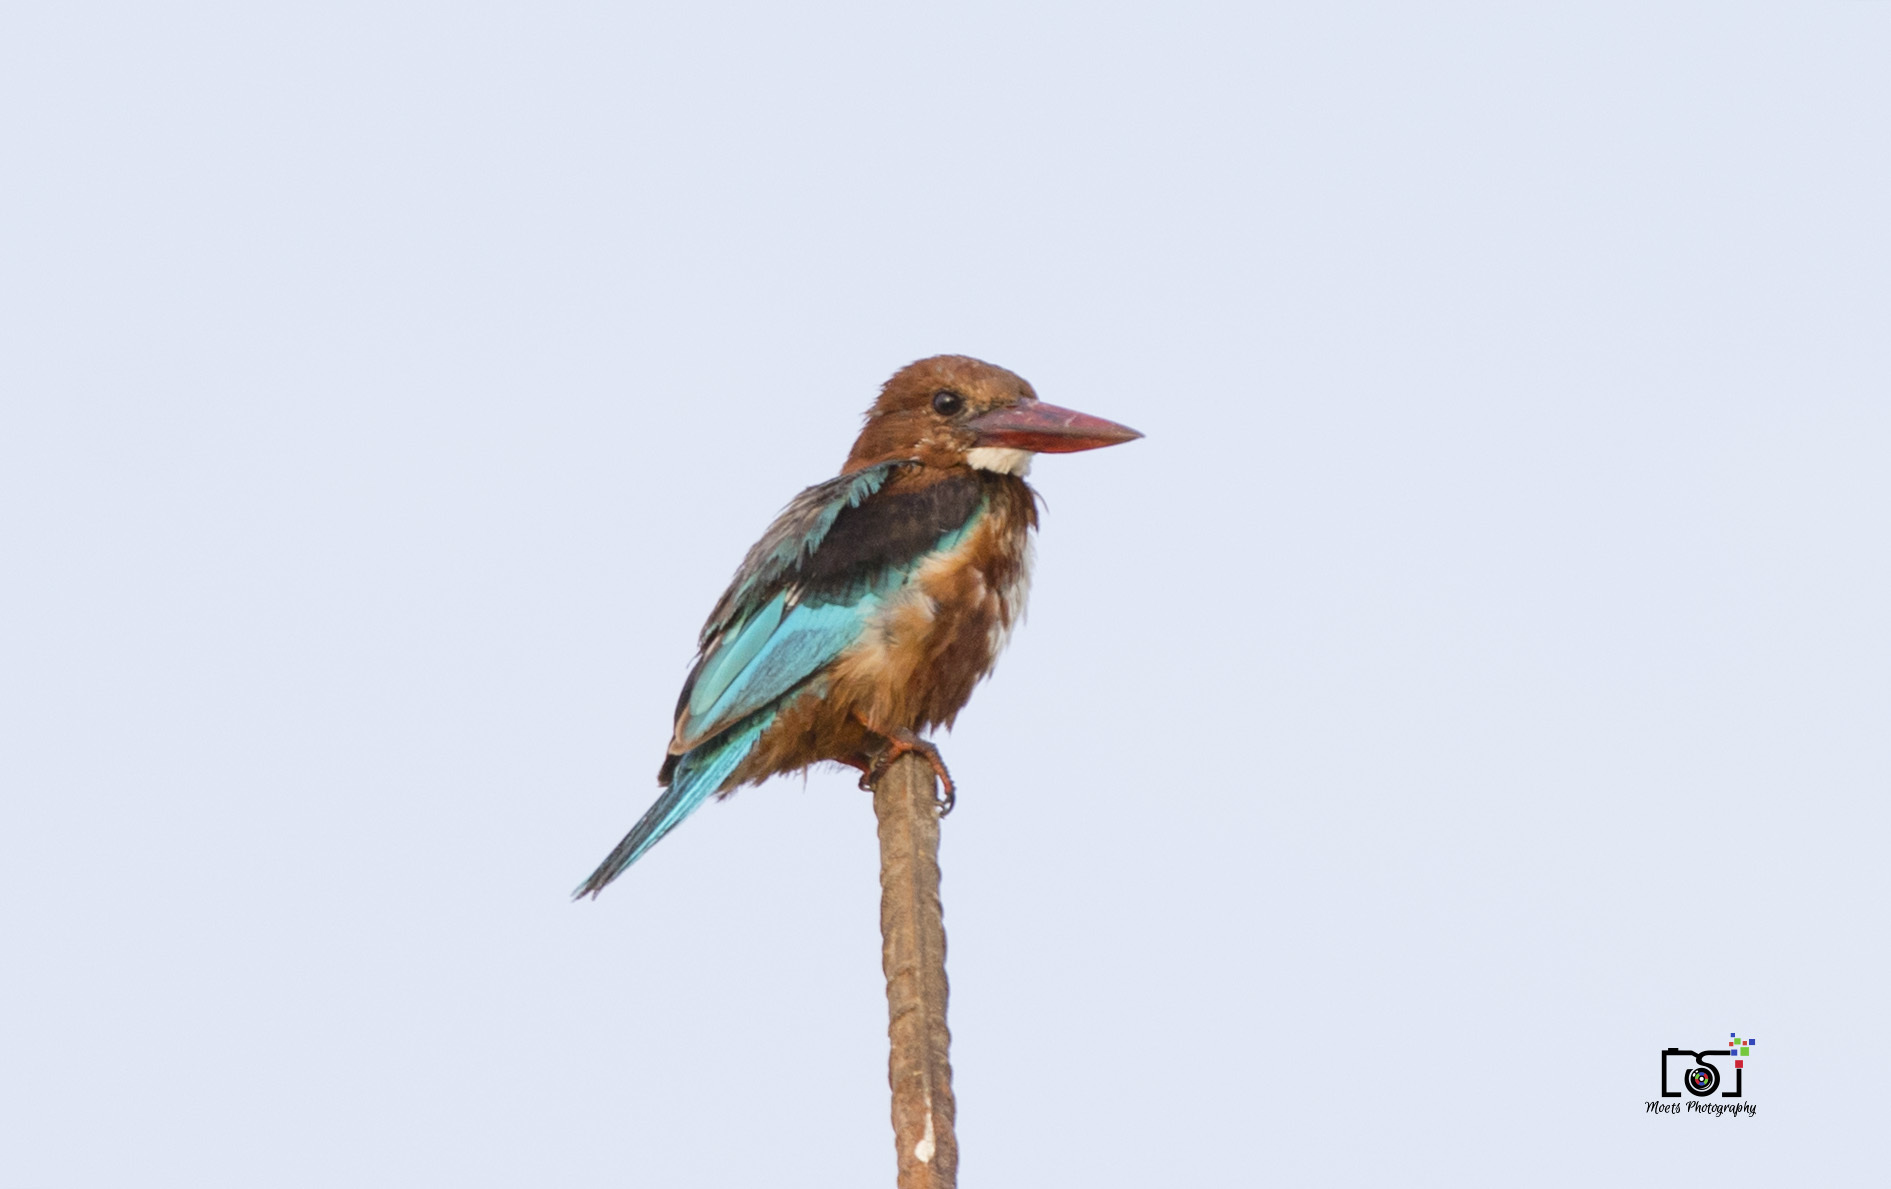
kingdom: Animalia
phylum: Chordata
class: Aves
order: Coraciiformes
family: Alcedinidae
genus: Halcyon
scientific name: Halcyon smyrnensis
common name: White-throated kingfisher
